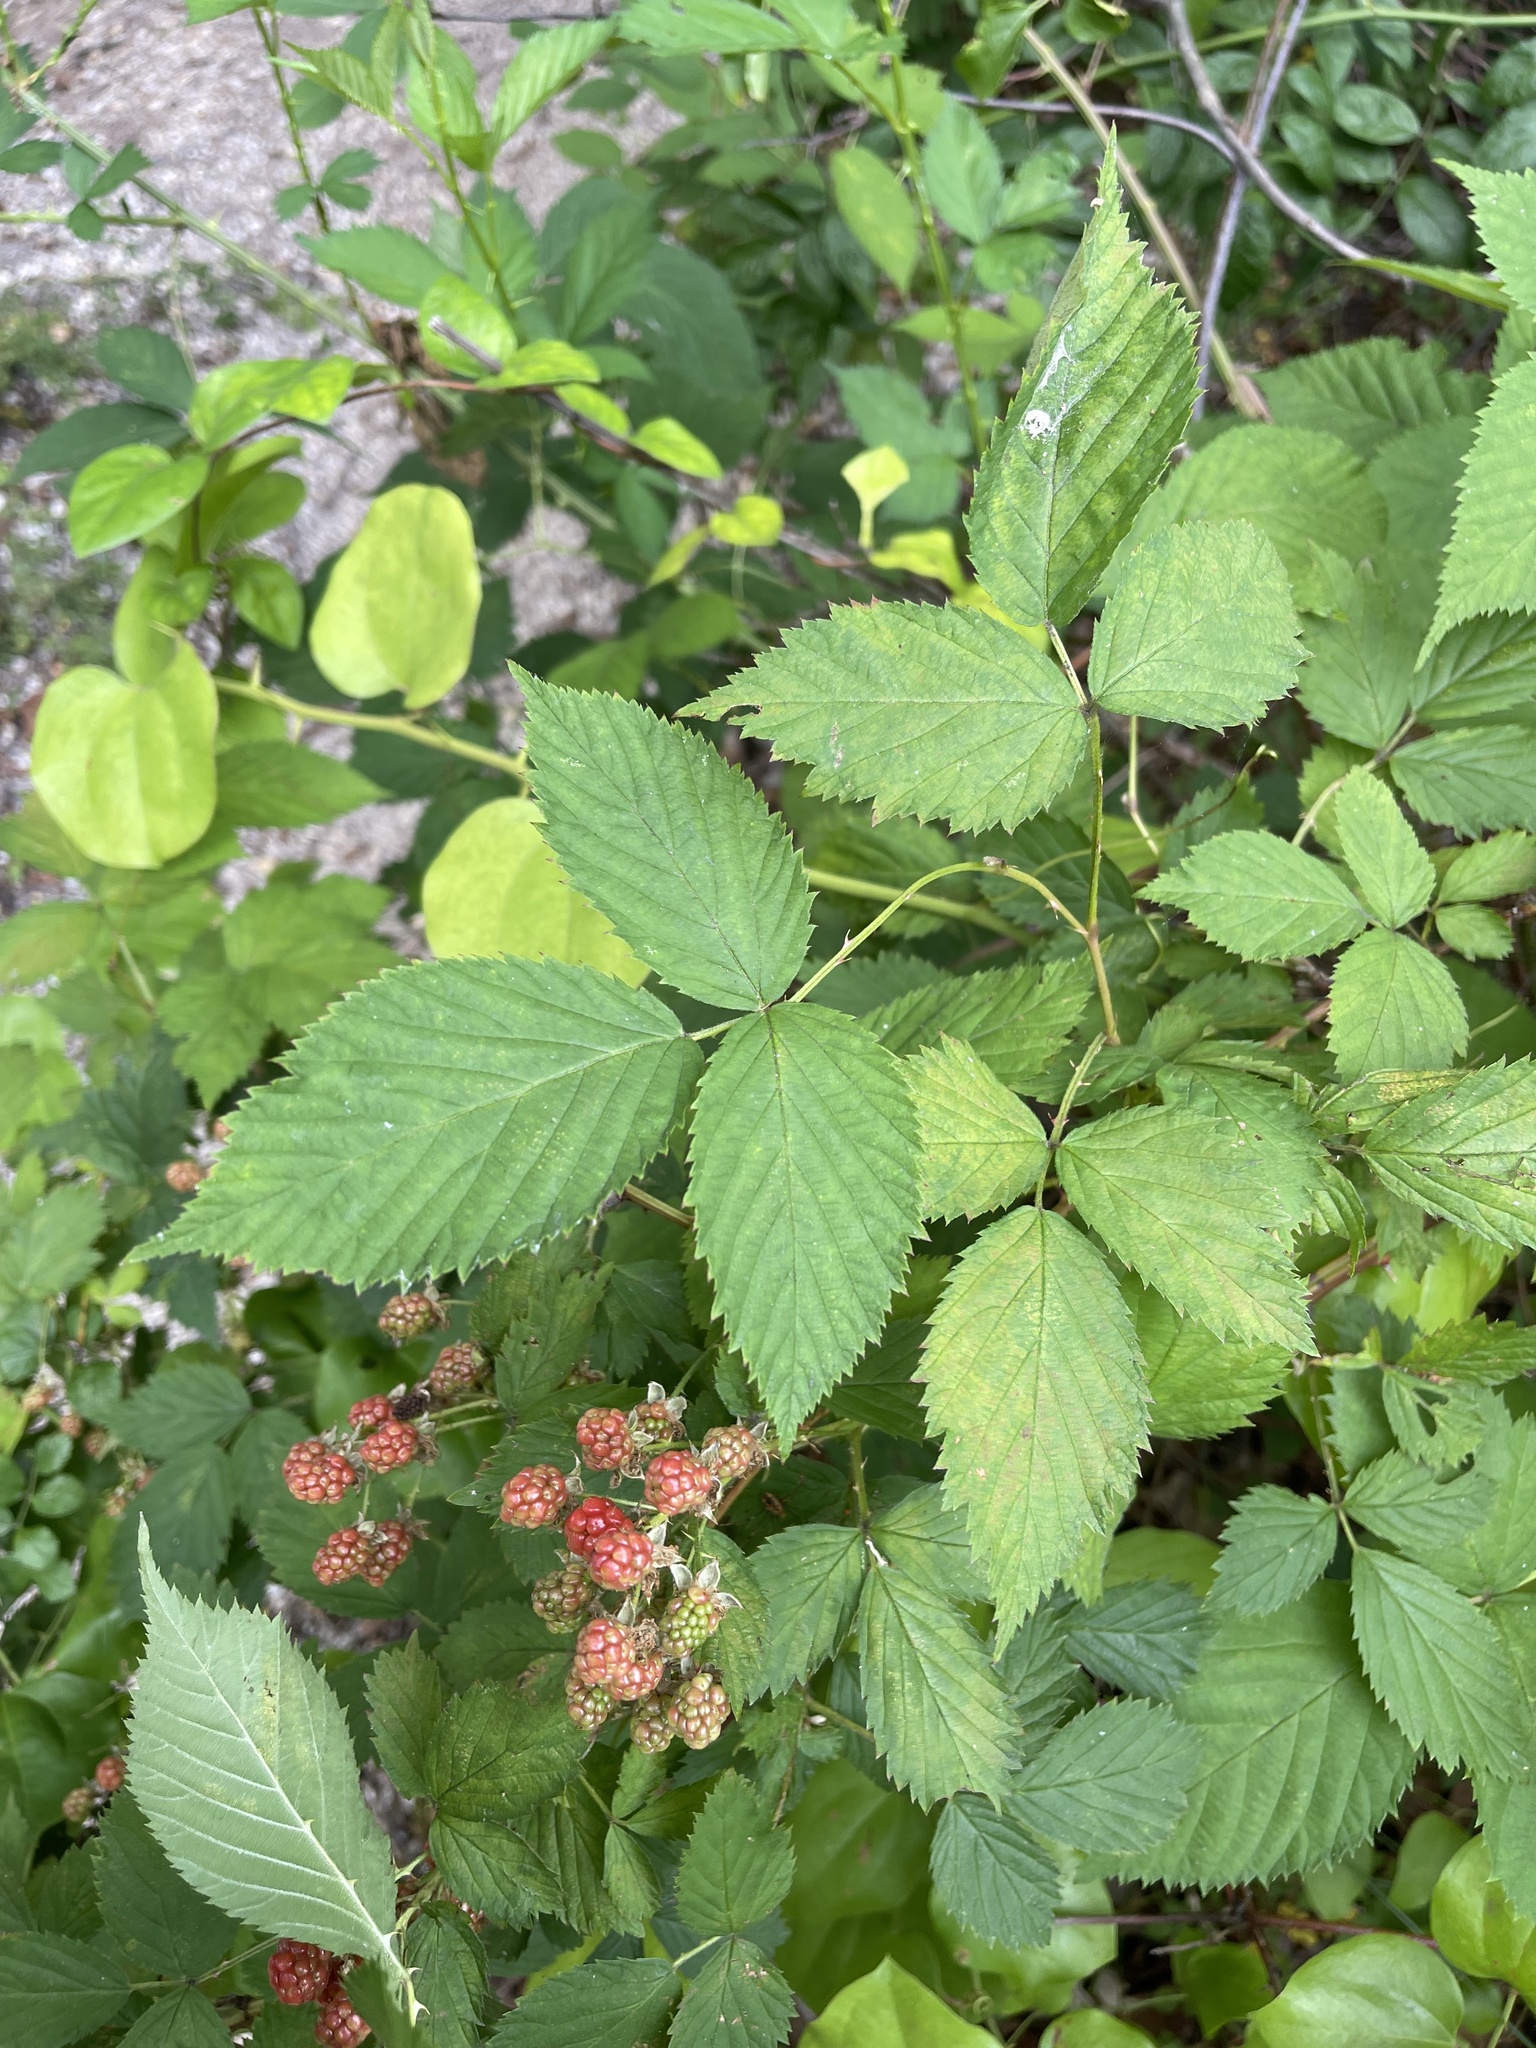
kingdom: Plantae
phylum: Tracheophyta
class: Magnoliopsida
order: Rosales
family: Rosaceae
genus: Rubus
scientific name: Rubus allegheniensis
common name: Allegheny blackberry
